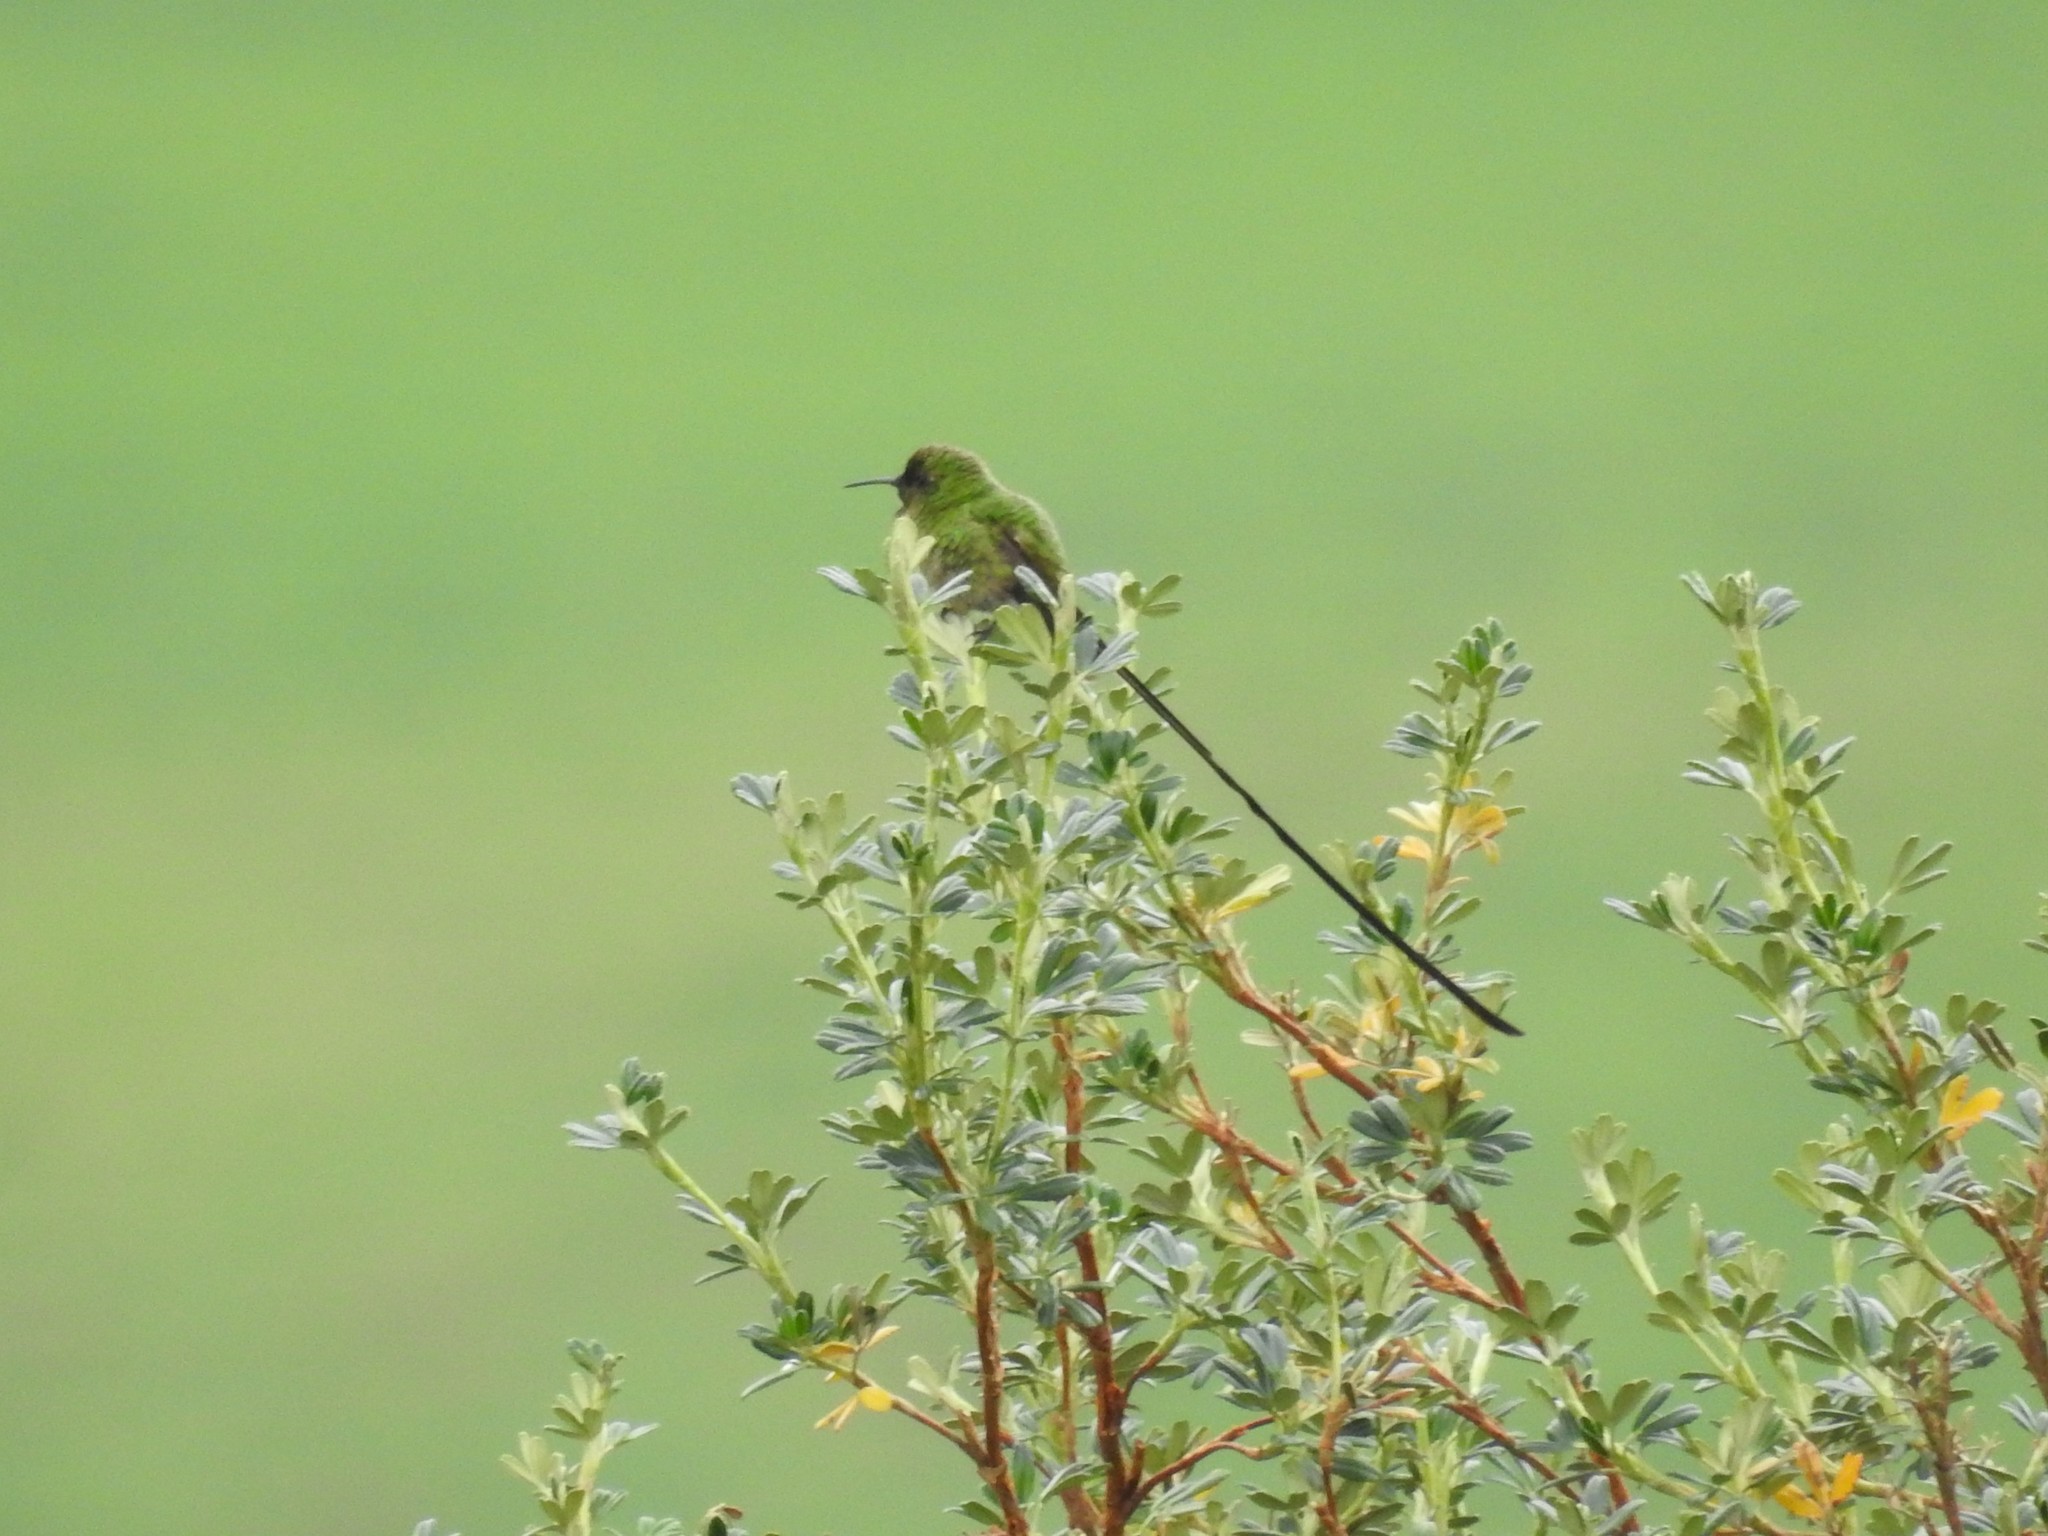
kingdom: Animalia
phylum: Chordata
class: Aves
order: Apodiformes
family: Trochilidae
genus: Lesbia
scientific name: Lesbia victoriae
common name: Black-tailed trainbearer
